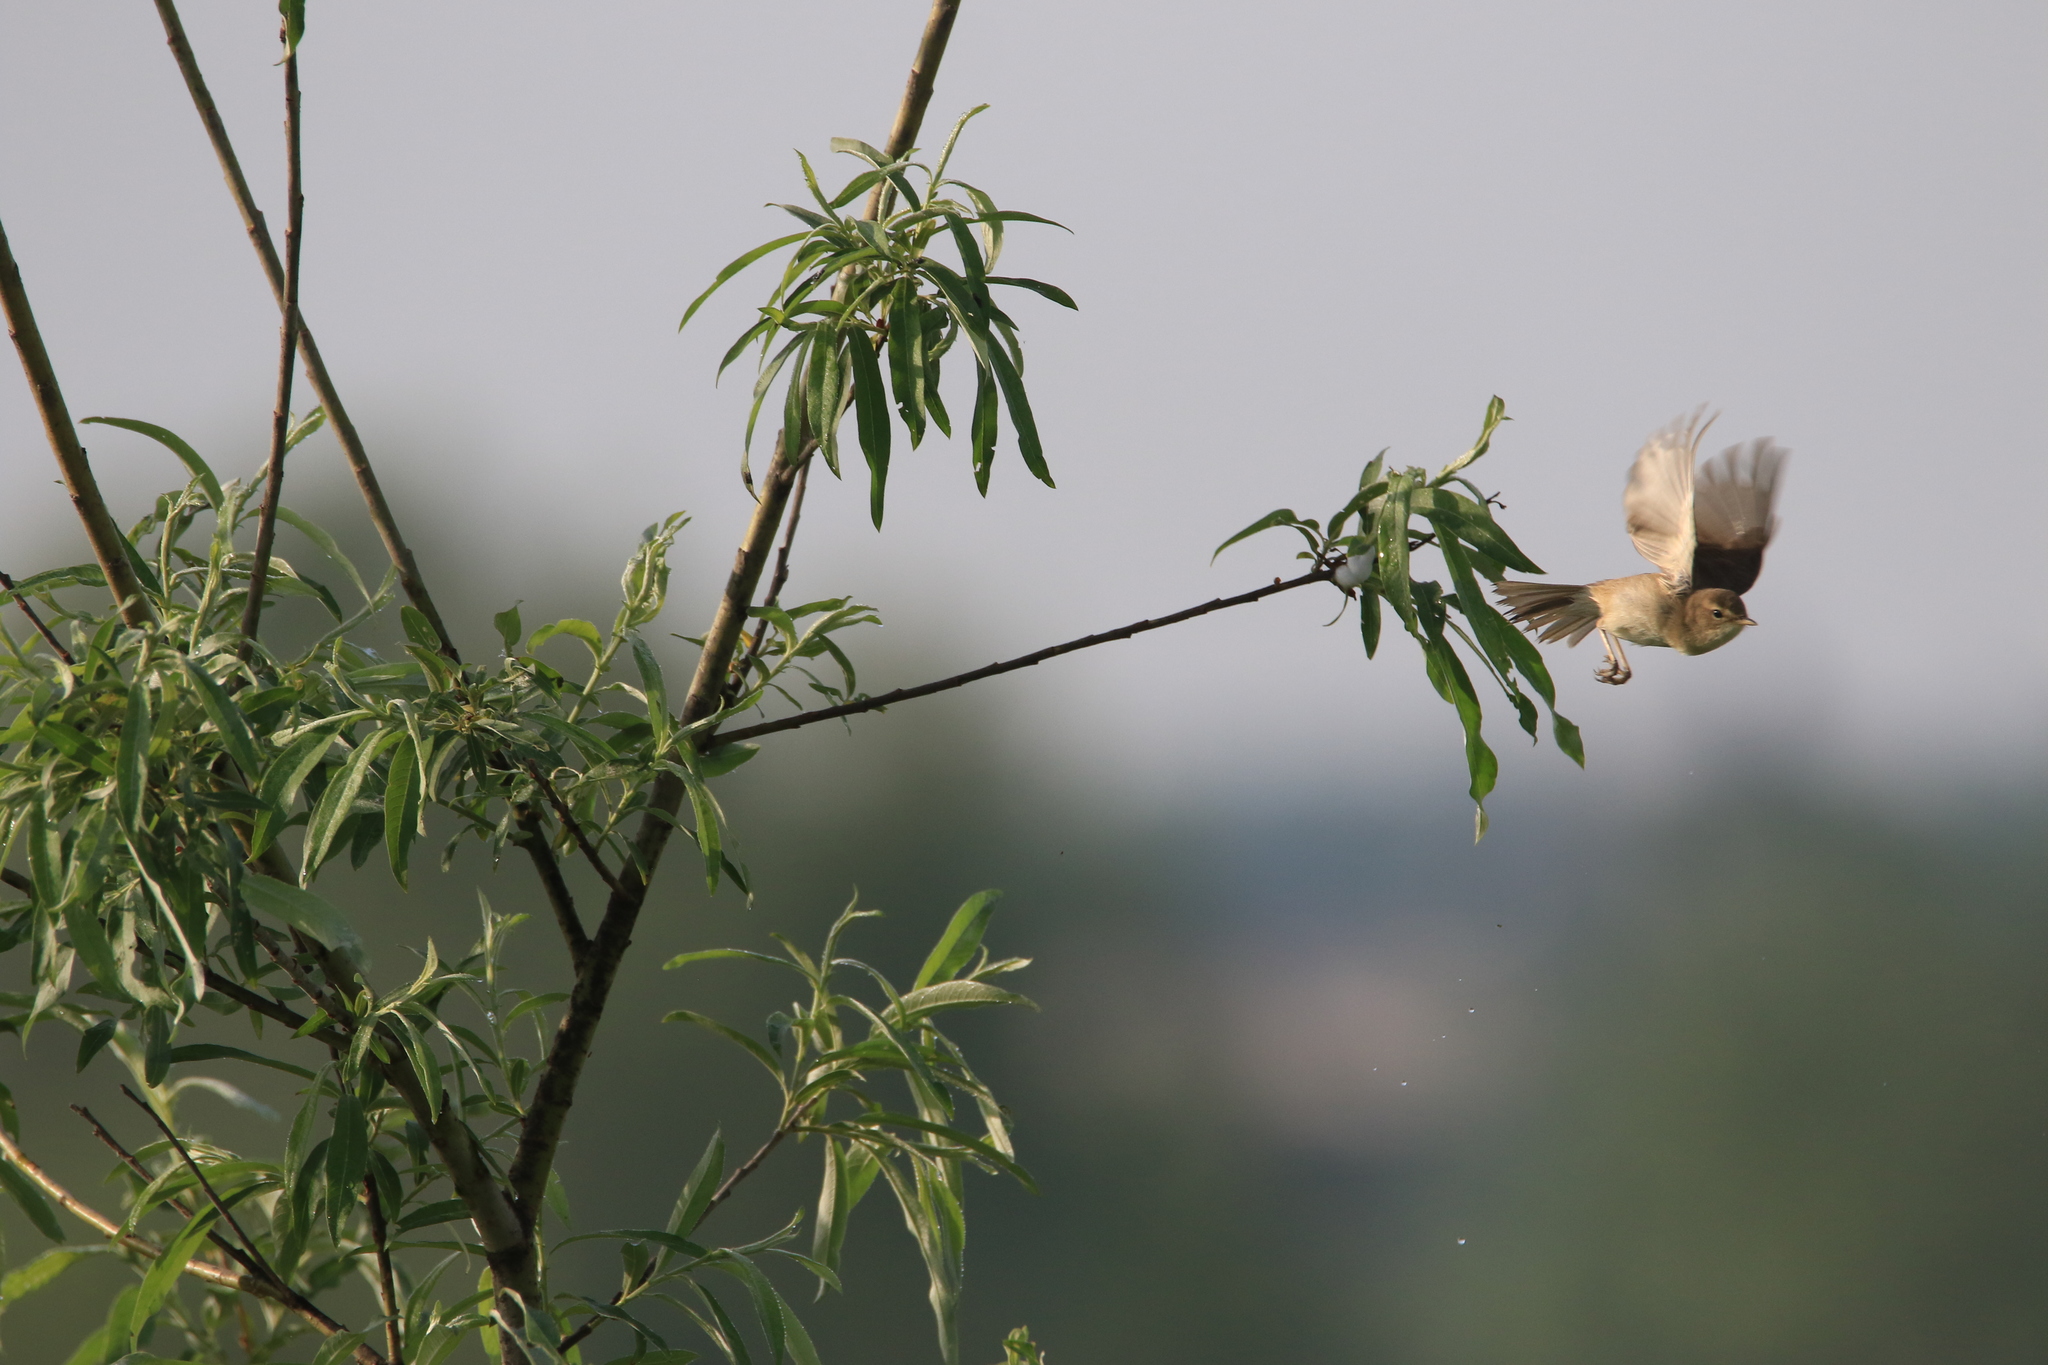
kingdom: Animalia
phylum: Chordata
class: Aves
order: Passeriformes
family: Acrocephalidae
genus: Iduna
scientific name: Iduna caligata
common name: Booted warbler
